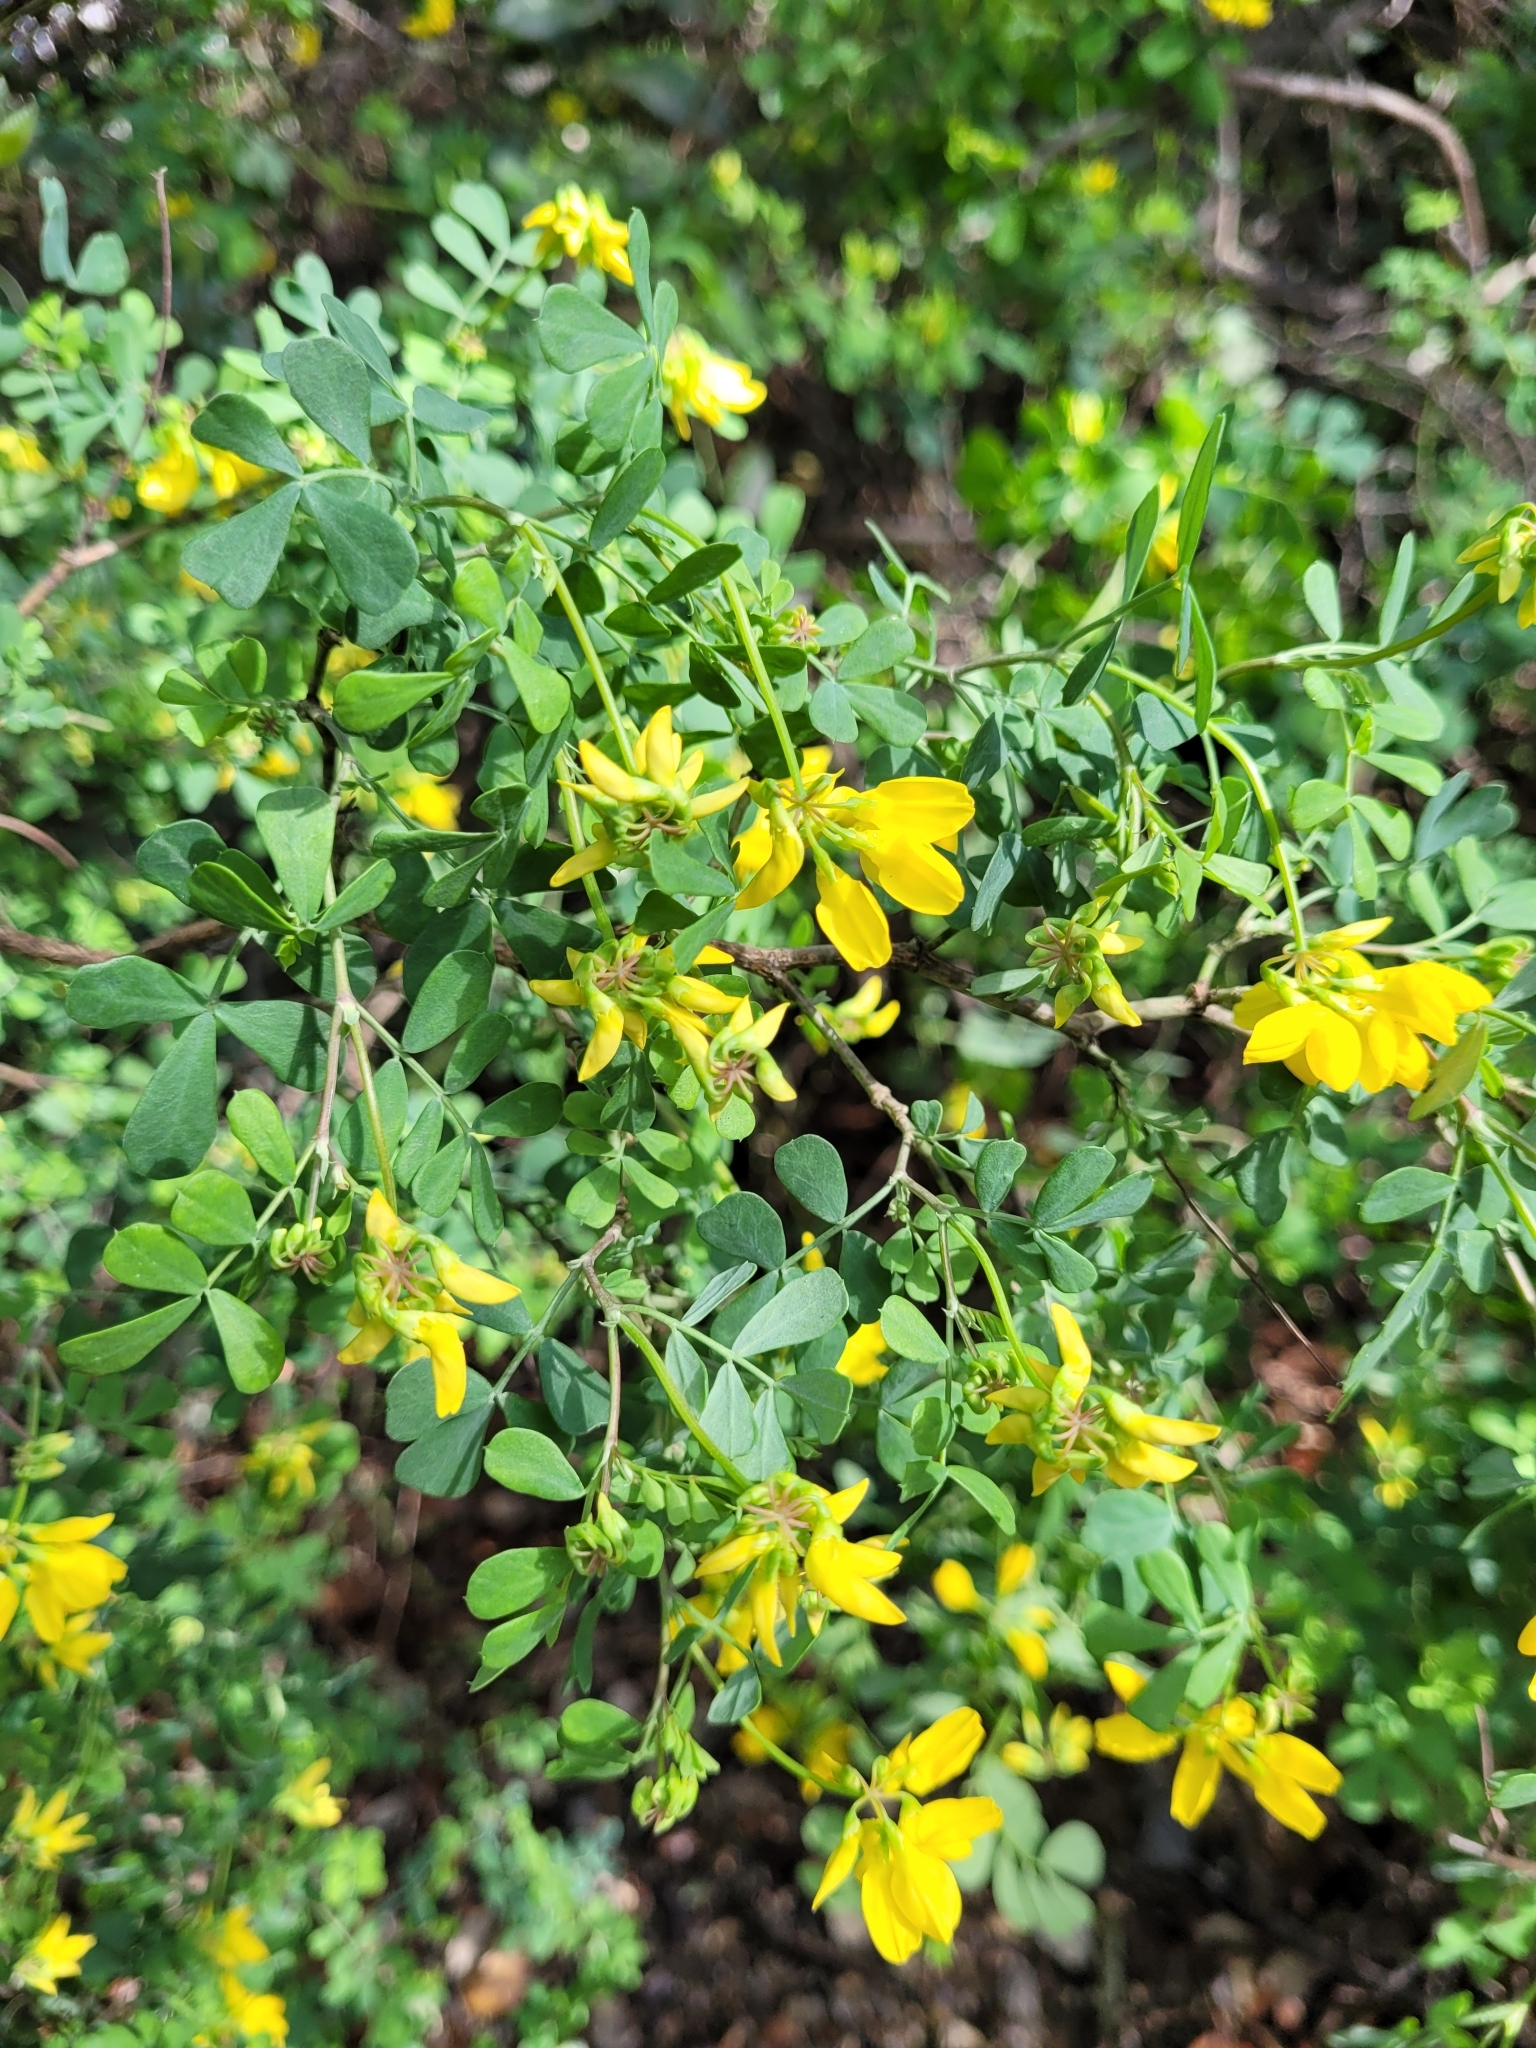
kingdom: Plantae
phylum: Tracheophyta
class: Magnoliopsida
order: Fabales
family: Fabaceae
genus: Coronilla
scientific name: Coronilla valentina
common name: Shrubby scorpion-vetch
